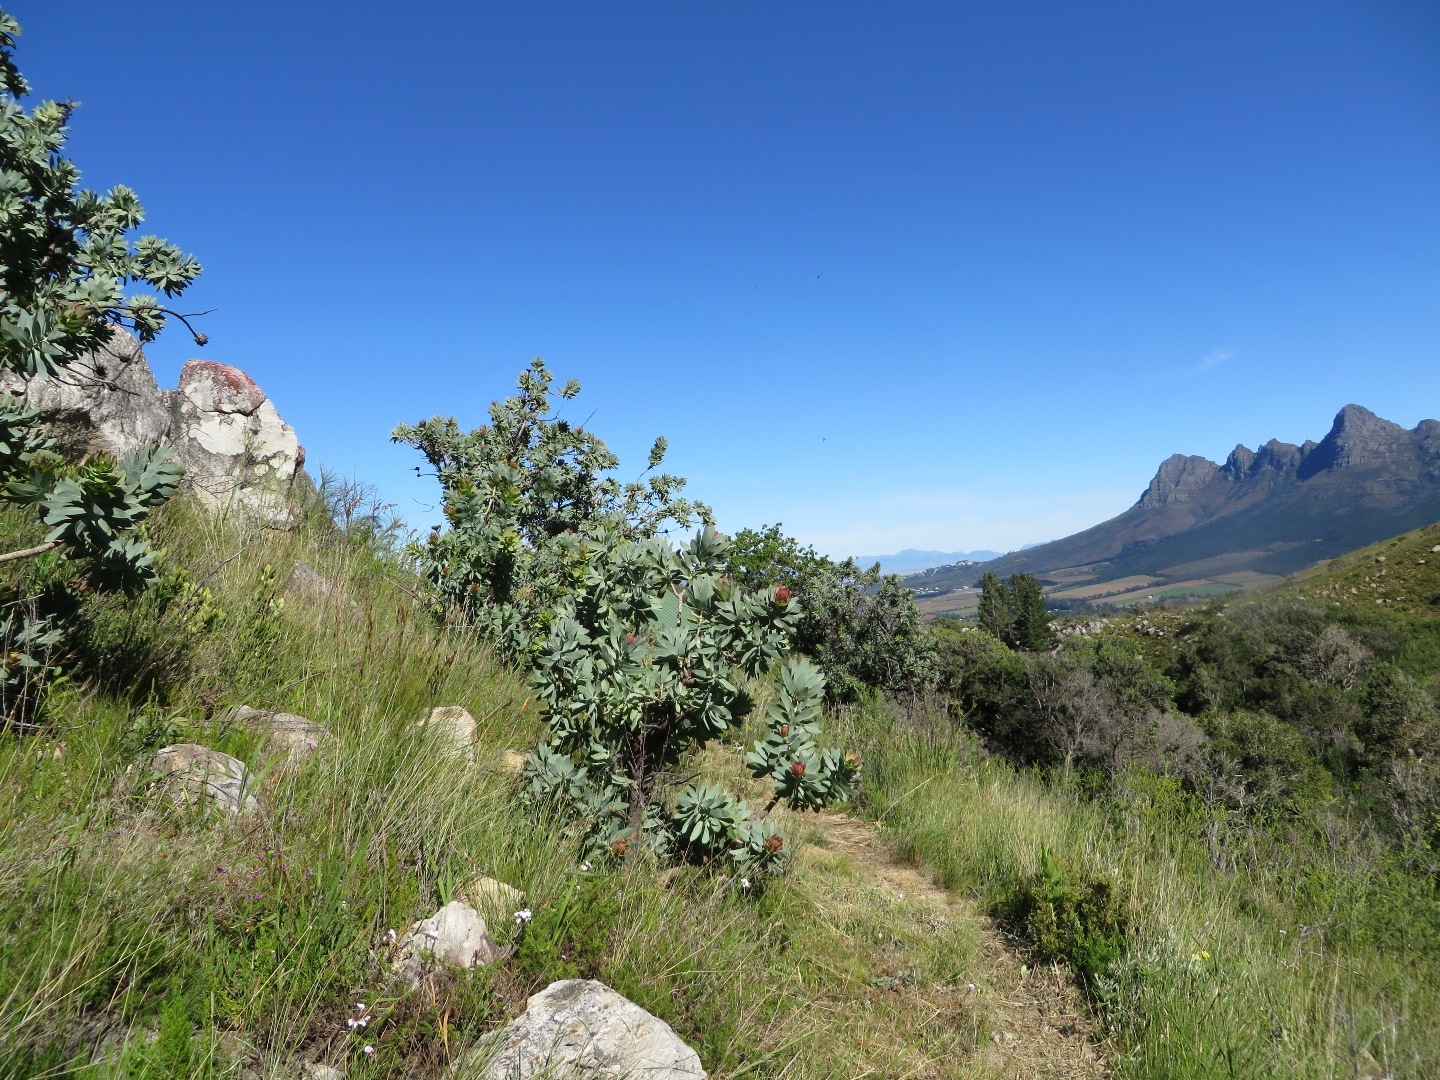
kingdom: Plantae
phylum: Tracheophyta
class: Magnoliopsida
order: Proteales
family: Proteaceae
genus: Protea
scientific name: Protea nitida
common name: Tree protea
